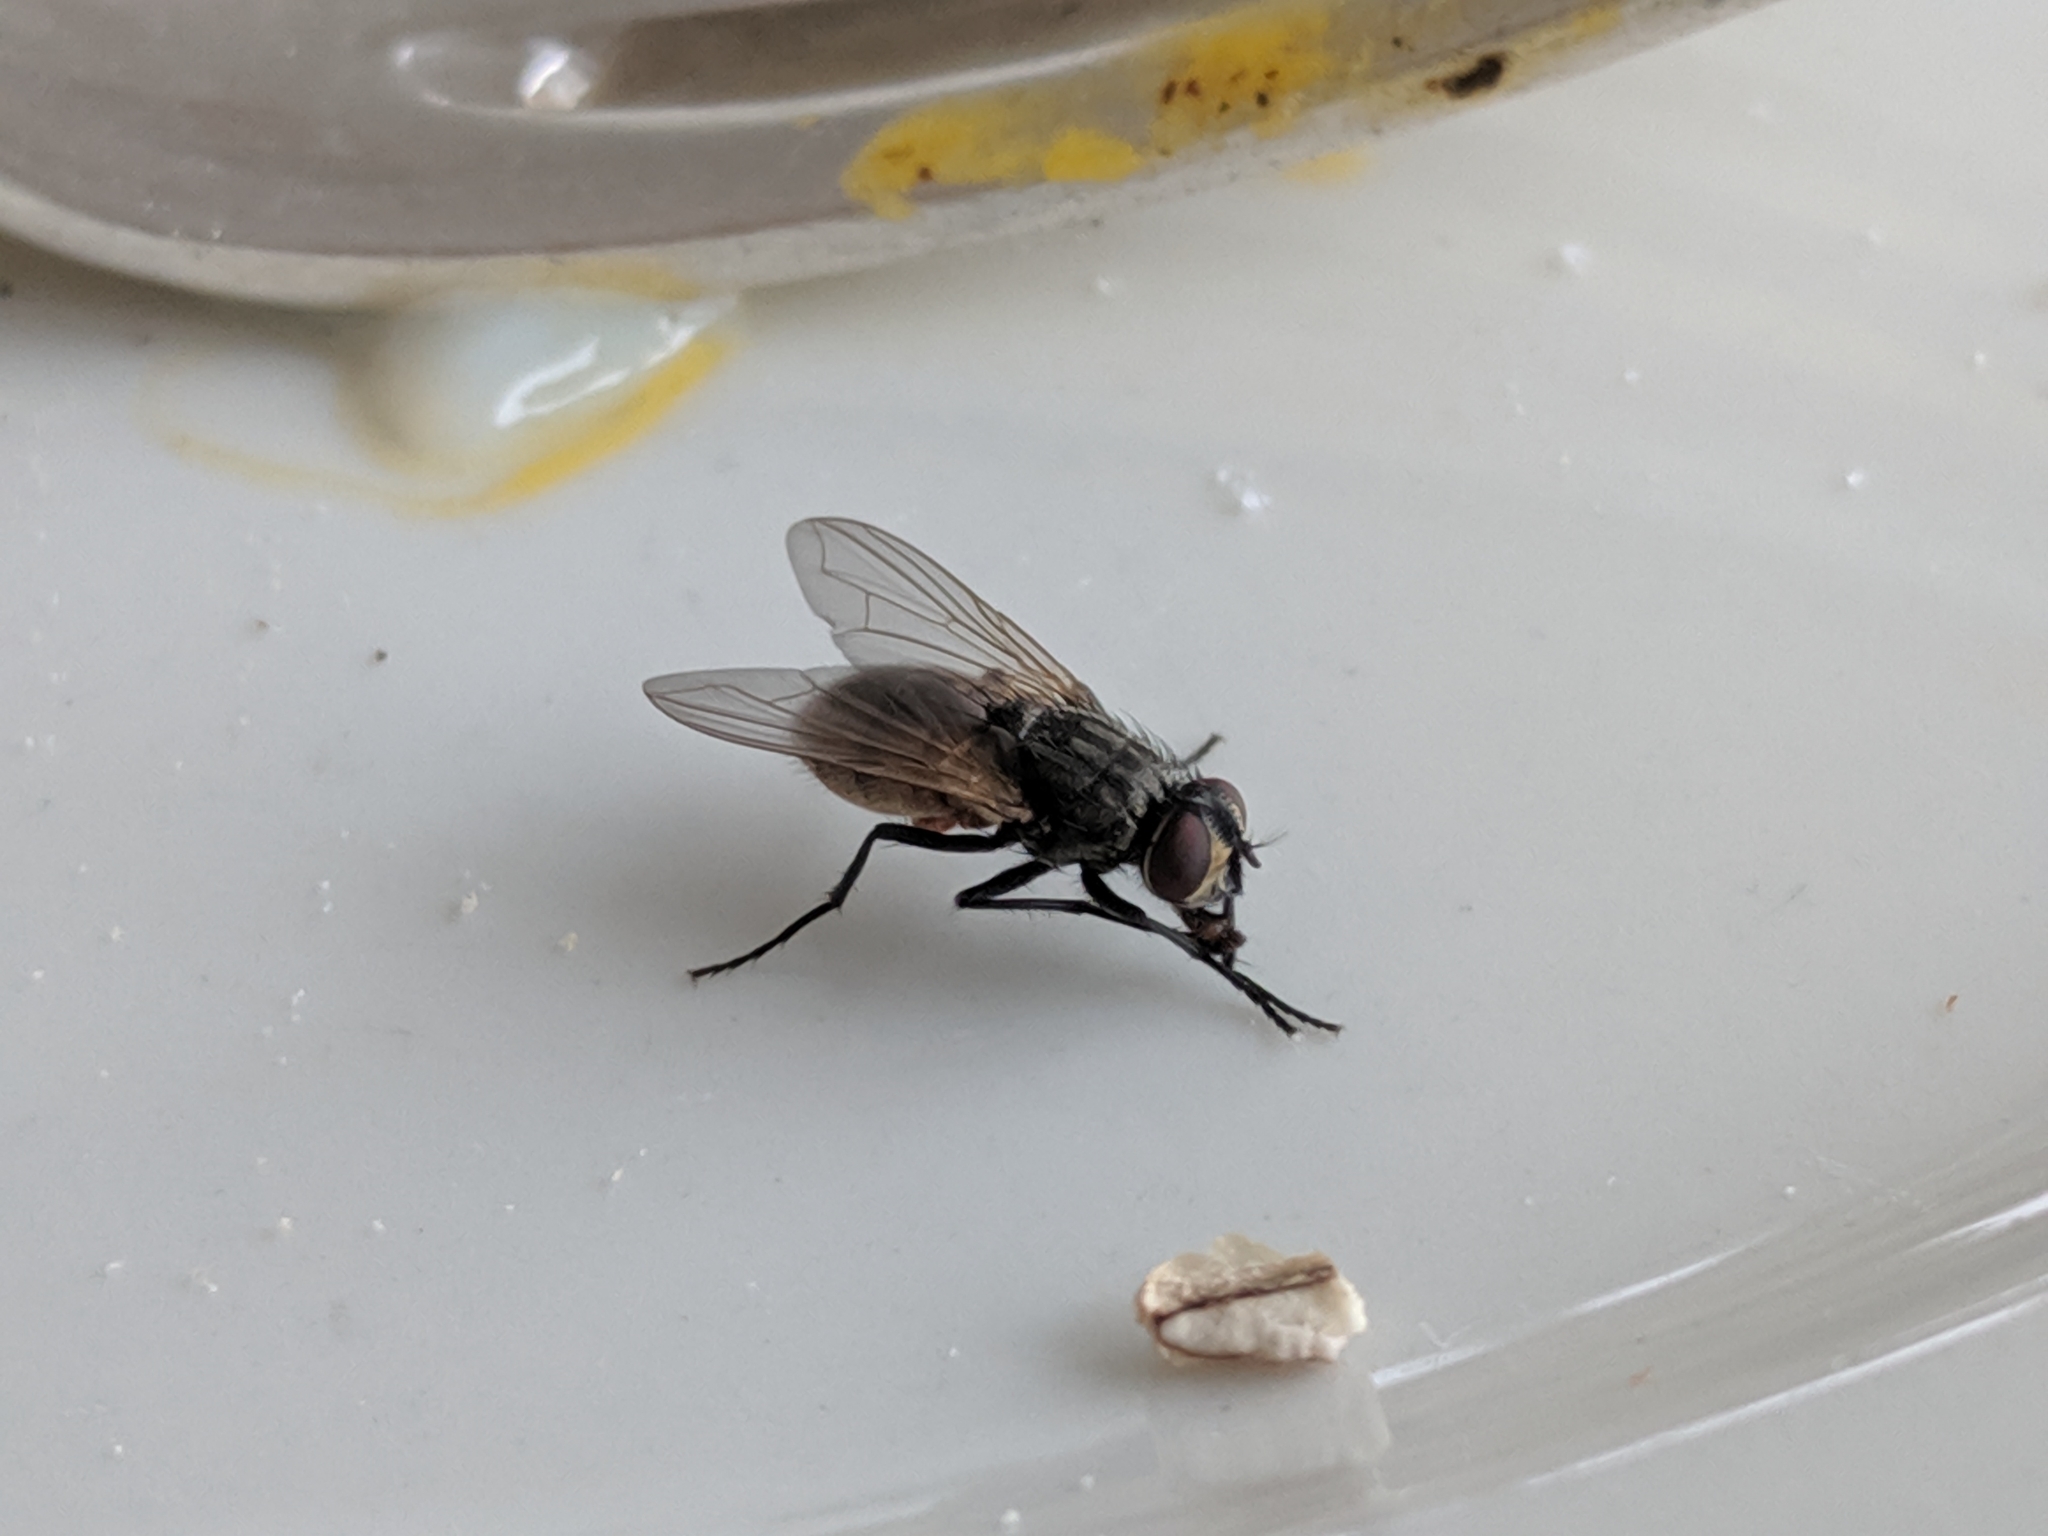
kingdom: Animalia
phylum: Arthropoda
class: Insecta
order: Diptera
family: Muscidae
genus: Musca
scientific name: Musca domestica
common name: House fly
